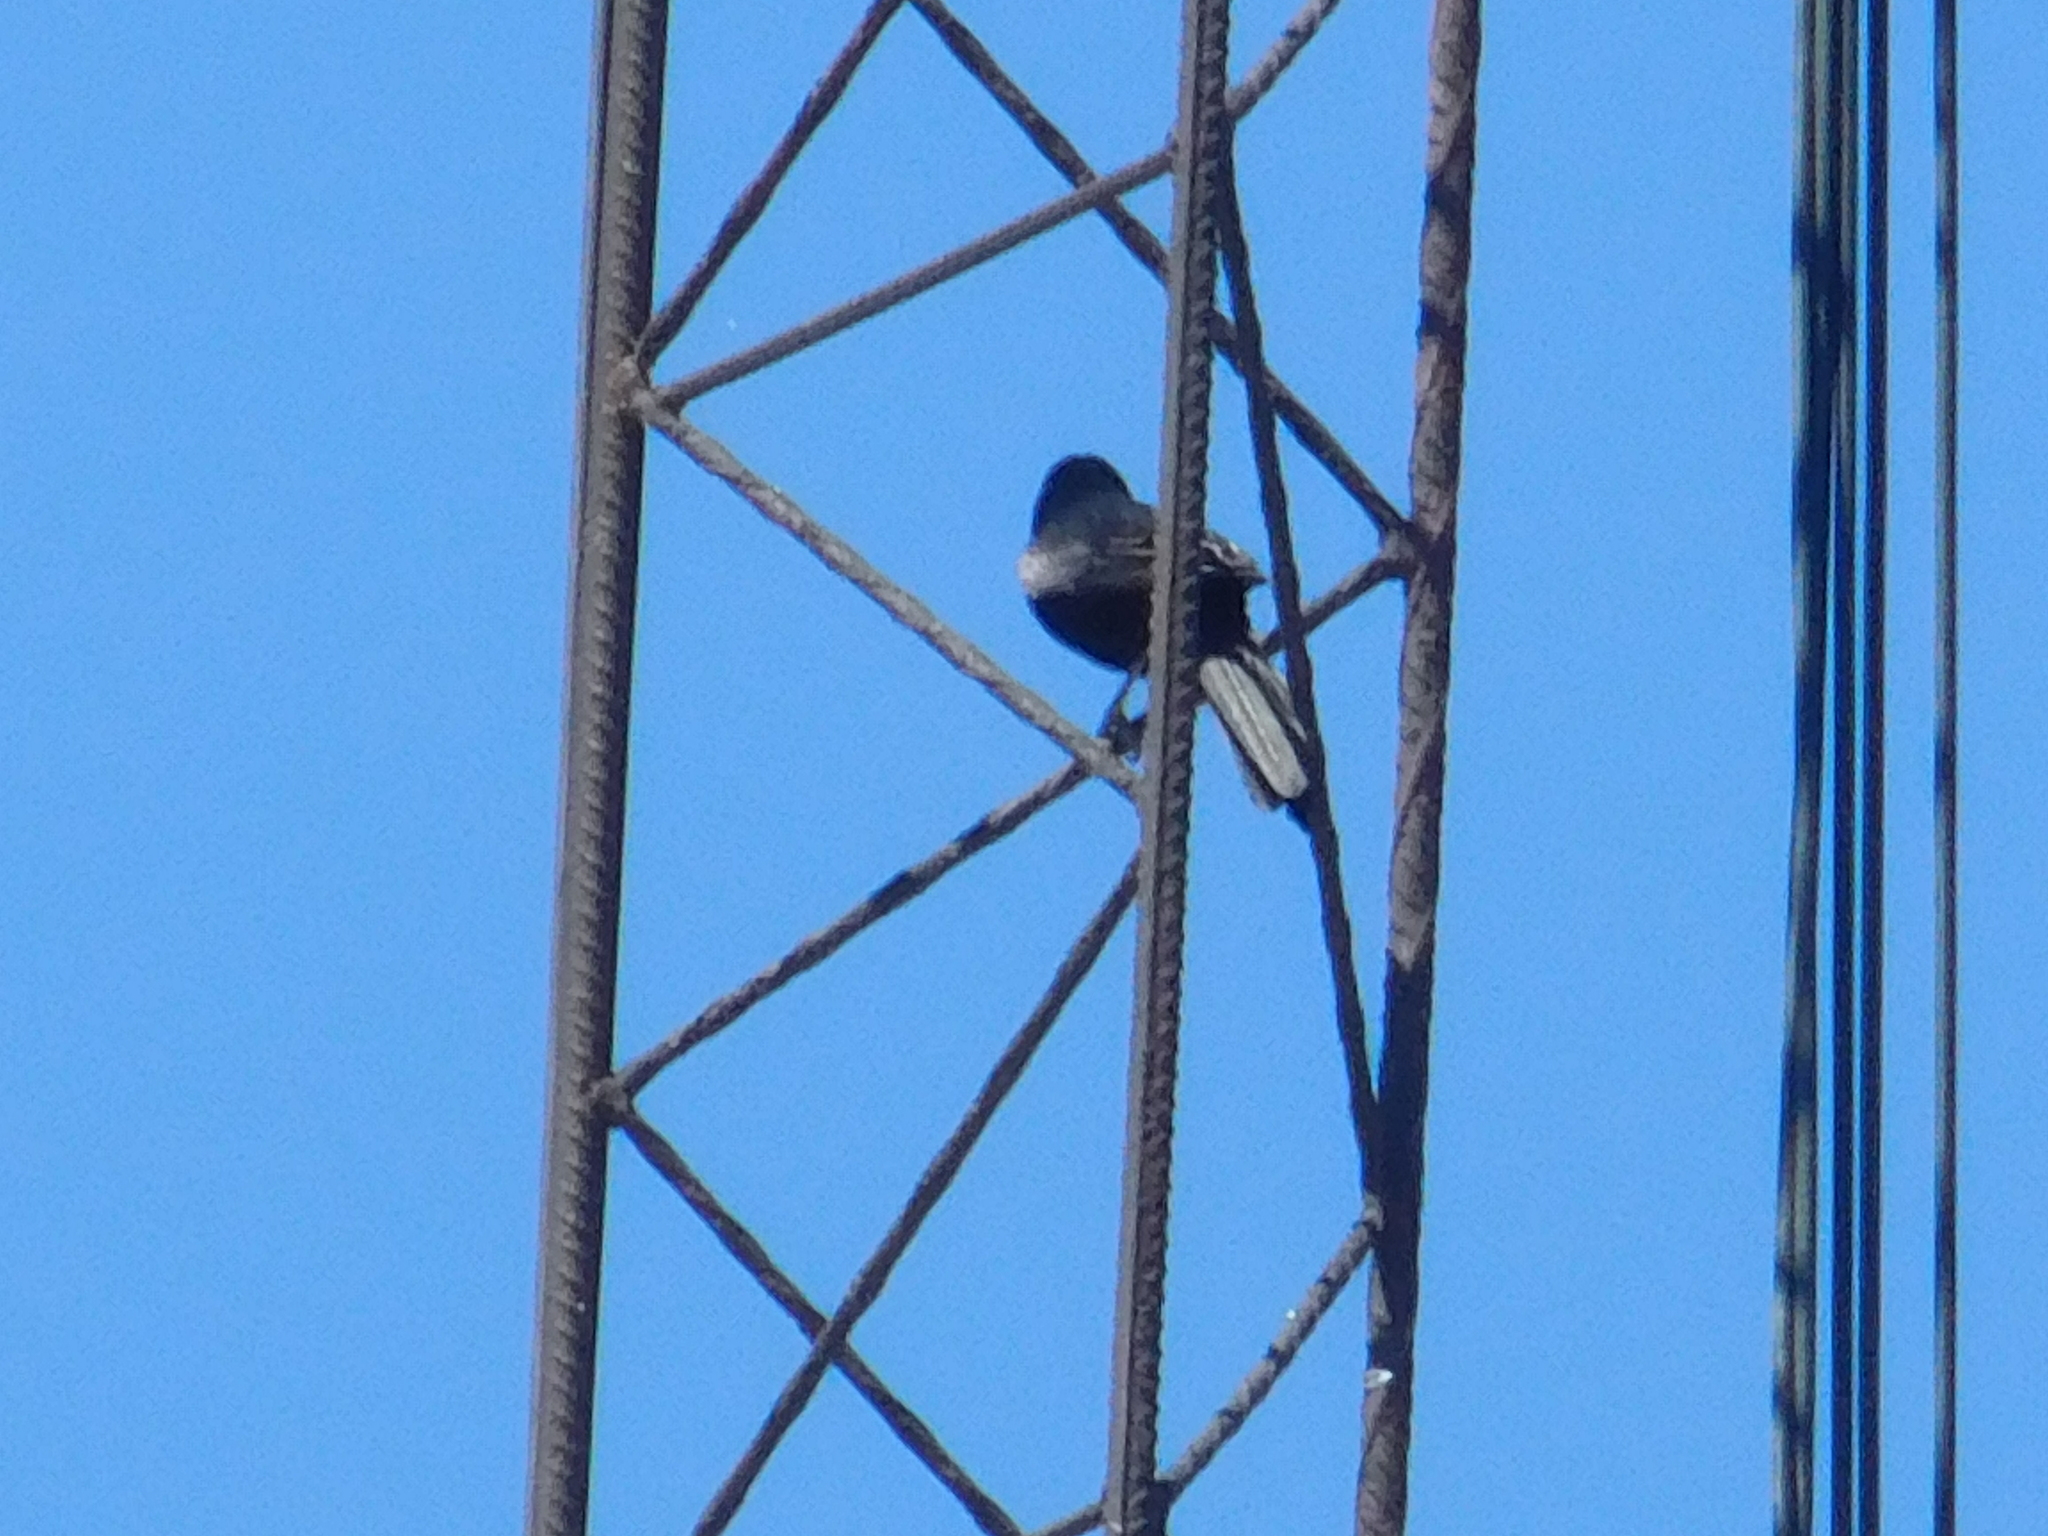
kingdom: Animalia
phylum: Chordata
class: Aves
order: Passeriformes
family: Icteridae
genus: Icterus
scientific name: Icterus cayanensis
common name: Epaulet oriole
